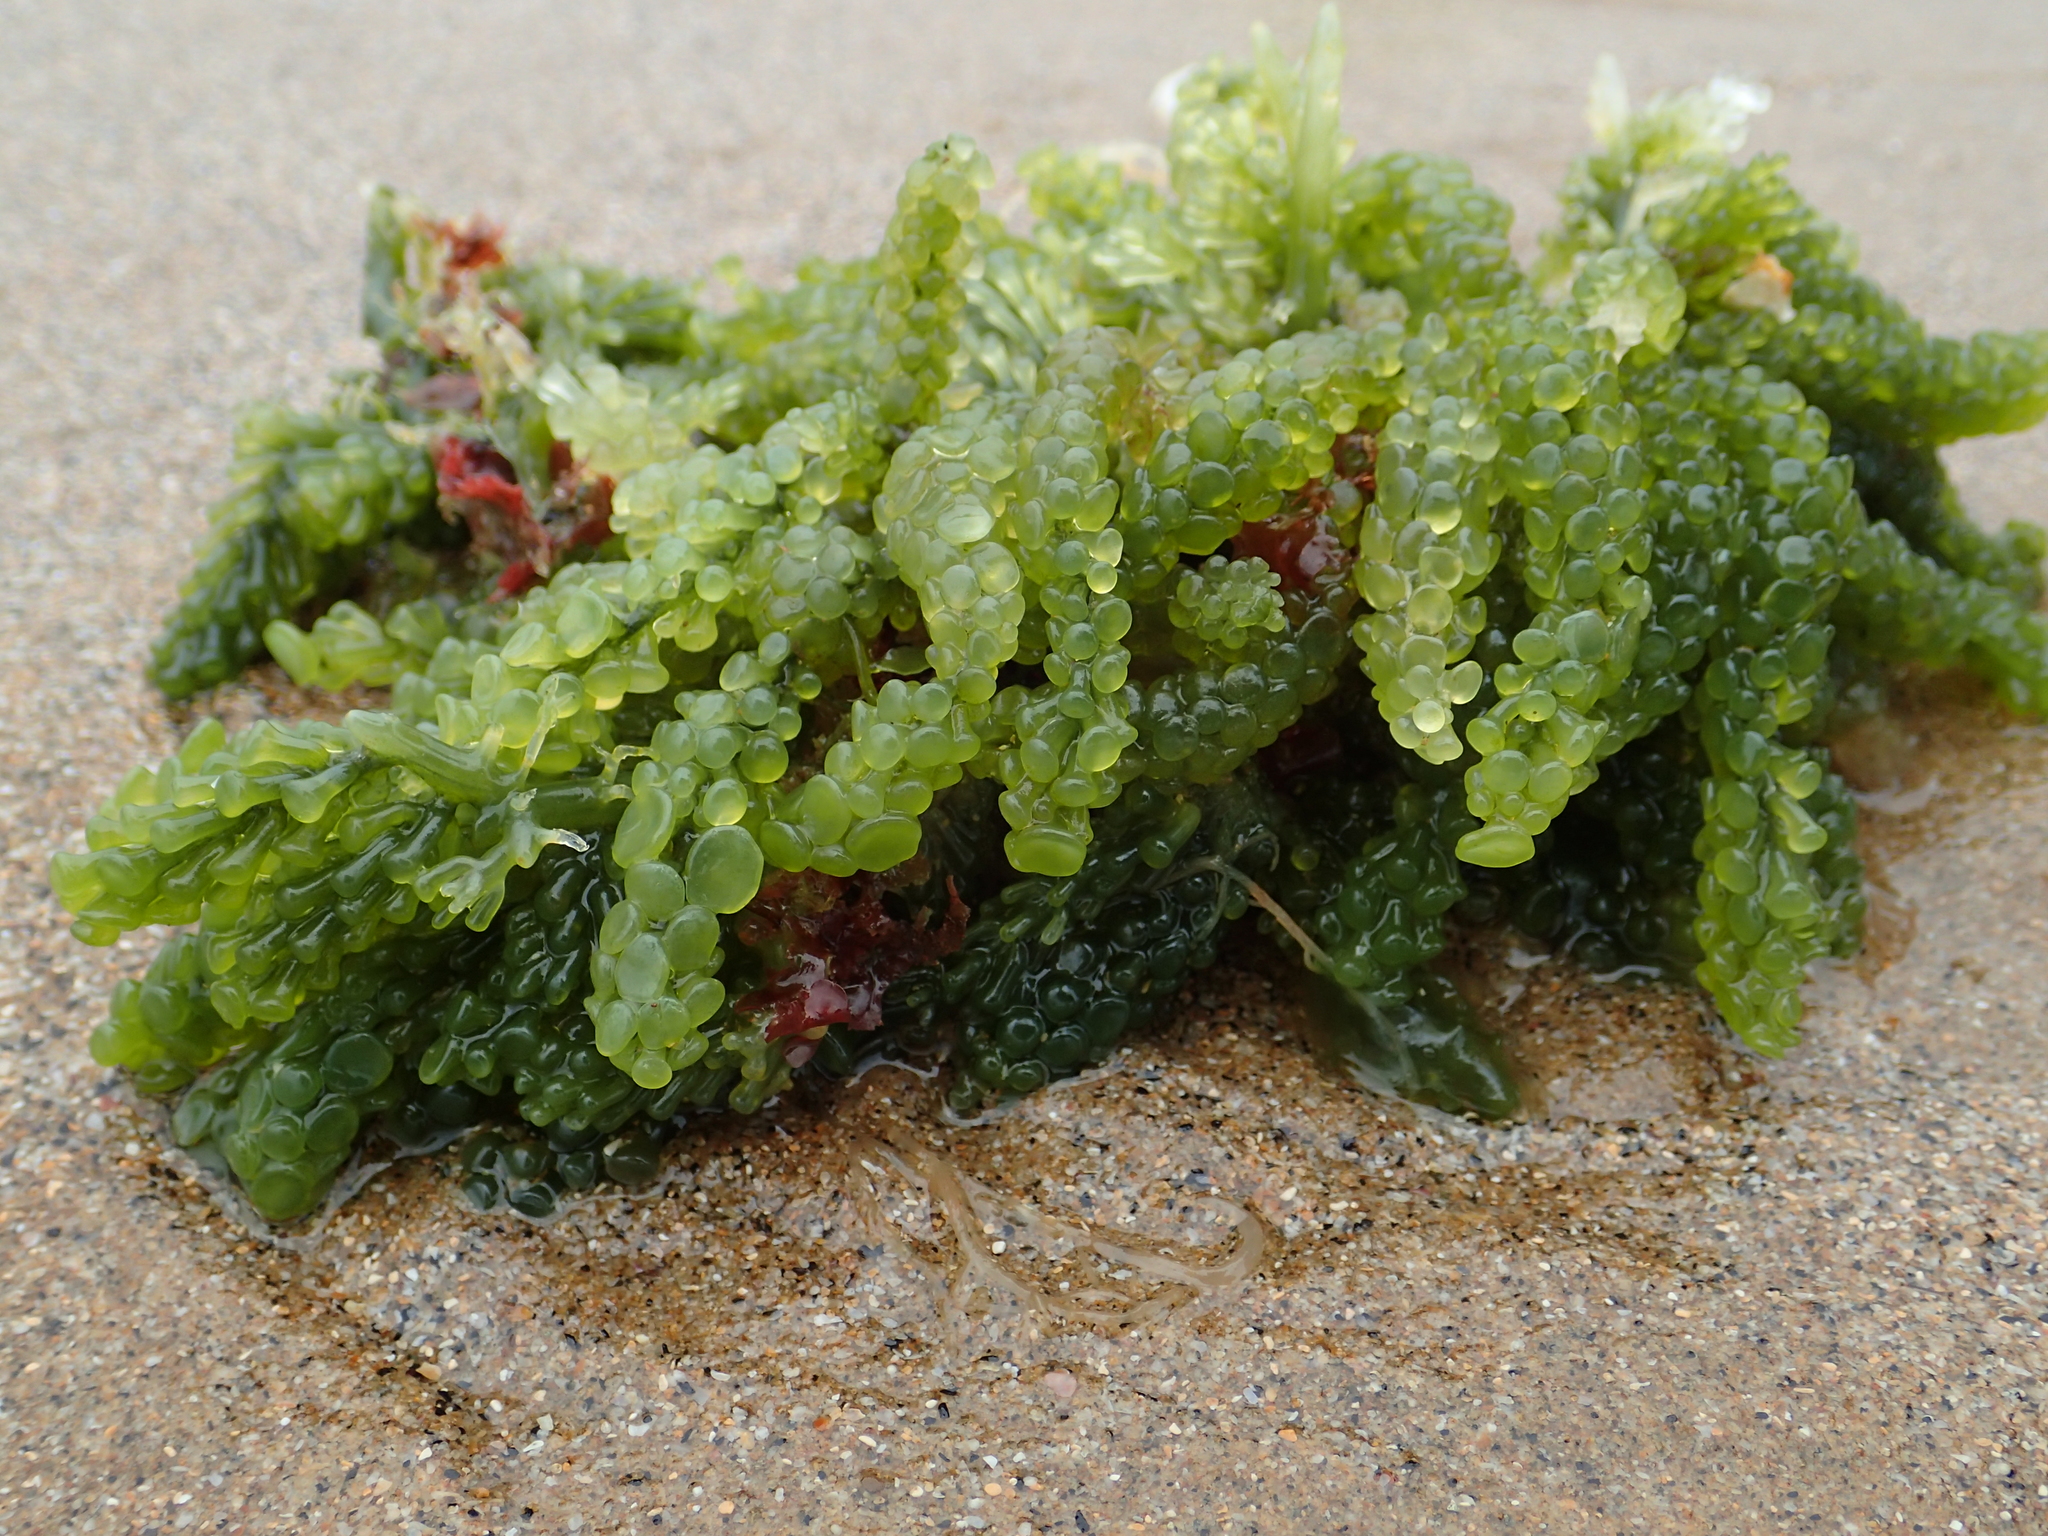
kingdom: Plantae
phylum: Chlorophyta
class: Ulvophyceae
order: Bryopsidales
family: Caulerpaceae
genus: Caulerpa
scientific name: Caulerpa racemosa
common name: Green grape algae
